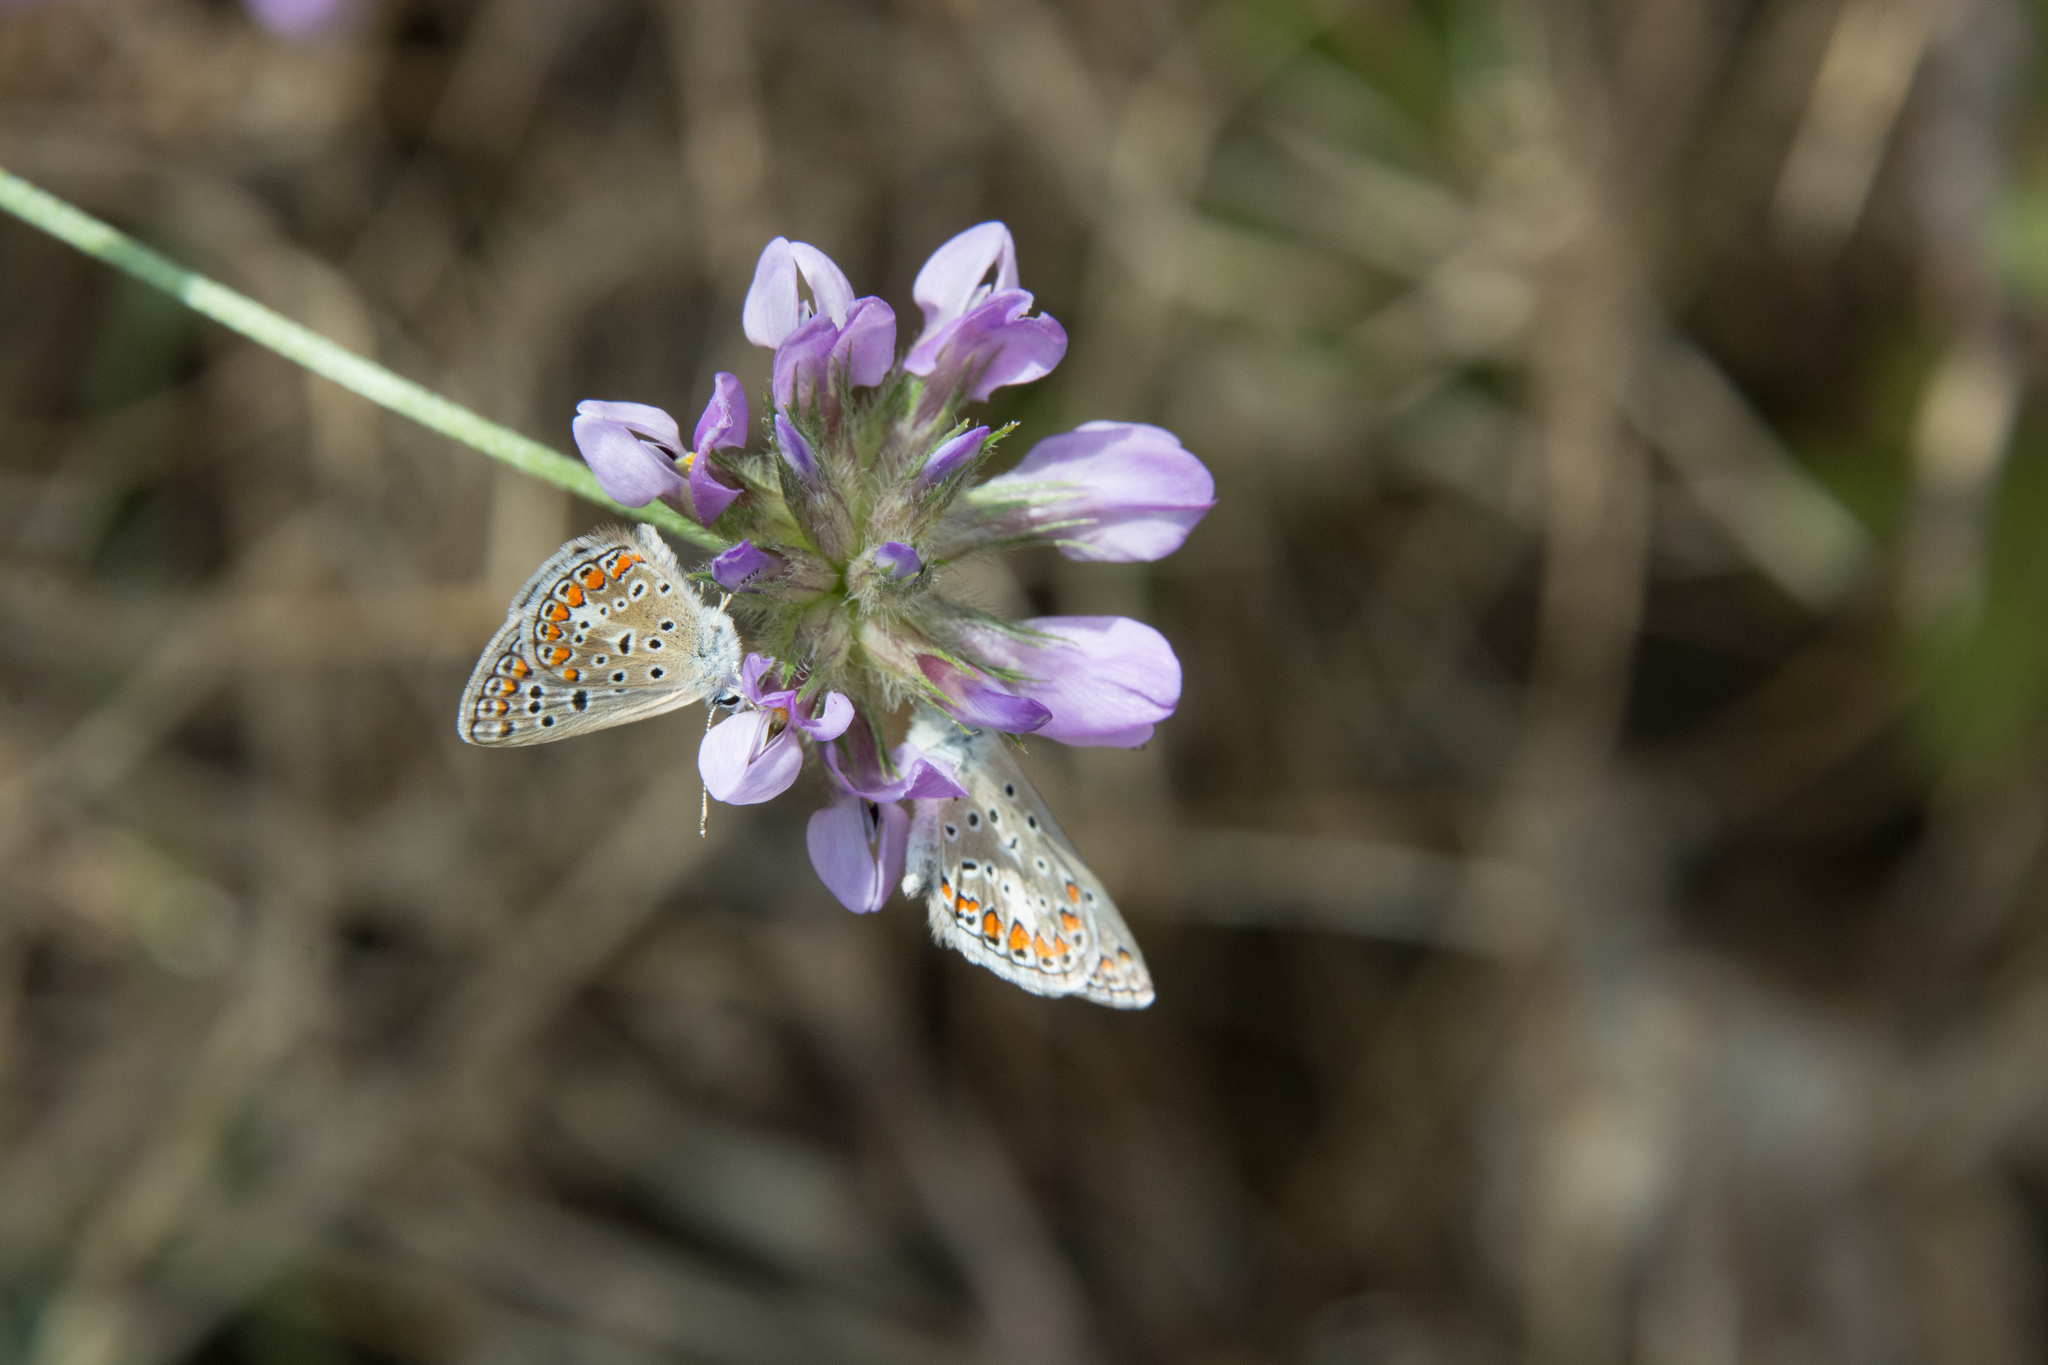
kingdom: Animalia
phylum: Arthropoda
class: Insecta
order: Lepidoptera
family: Lycaenidae
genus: Polyommatus
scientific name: Polyommatus celina
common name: Austaut's blue
